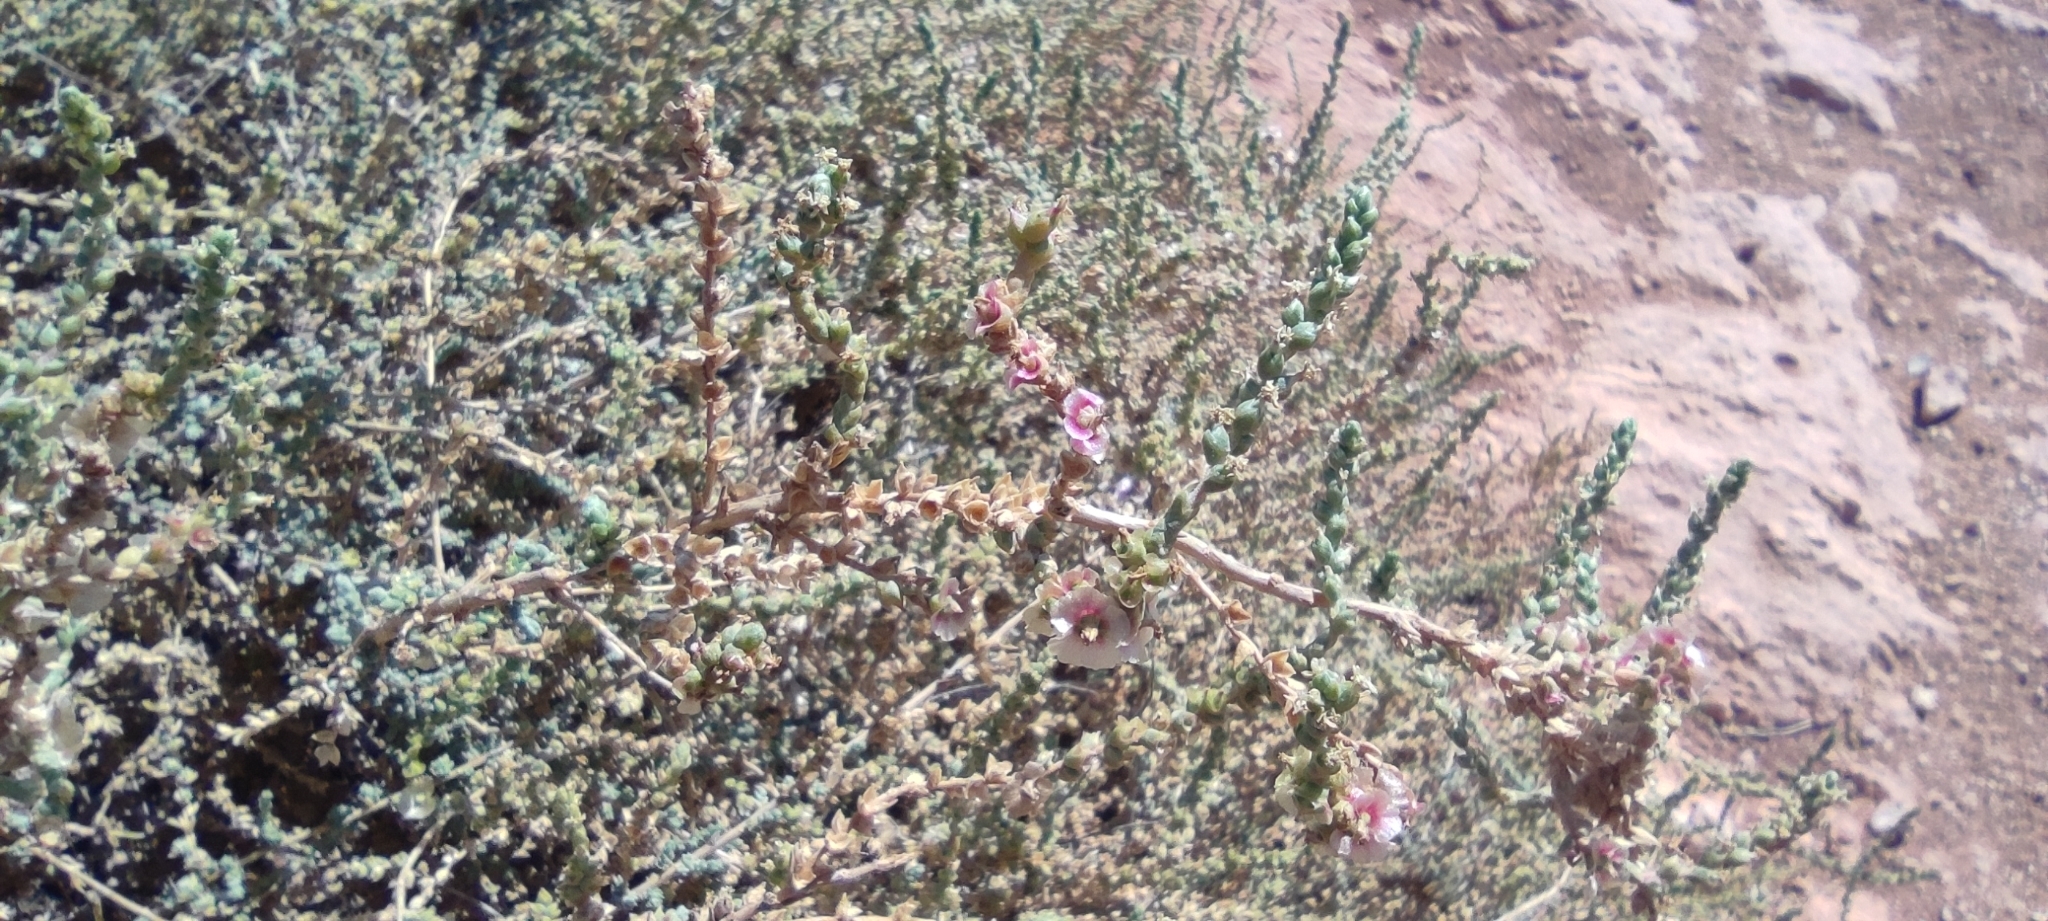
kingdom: Plantae
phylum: Tracheophyta
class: Magnoliopsida
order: Caryophyllales
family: Amaranthaceae
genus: Nitrosalsola
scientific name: Nitrosalsola vermiculata
